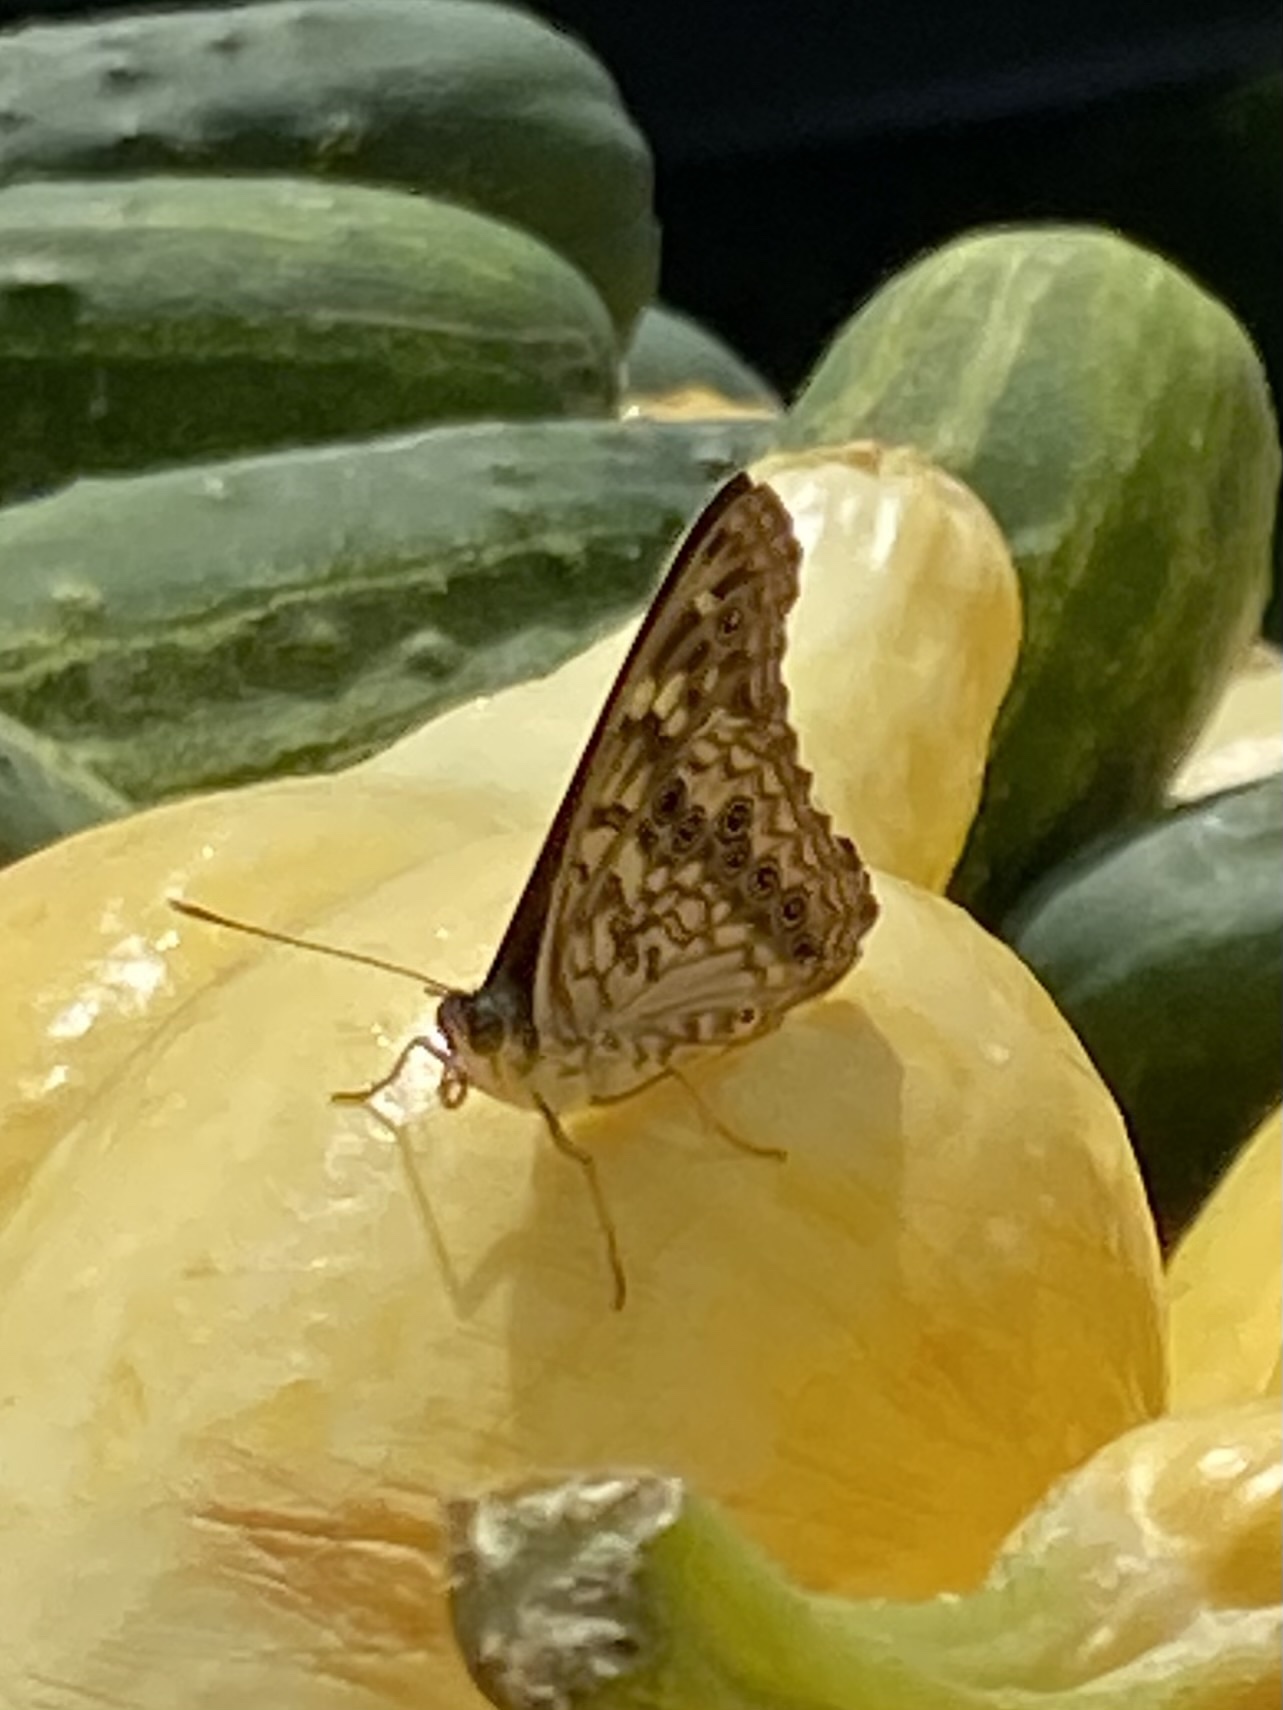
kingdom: Animalia
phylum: Arthropoda
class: Insecta
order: Lepidoptera
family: Nymphalidae
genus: Asterocampa
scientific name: Asterocampa celtis
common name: Hackberry emperor
